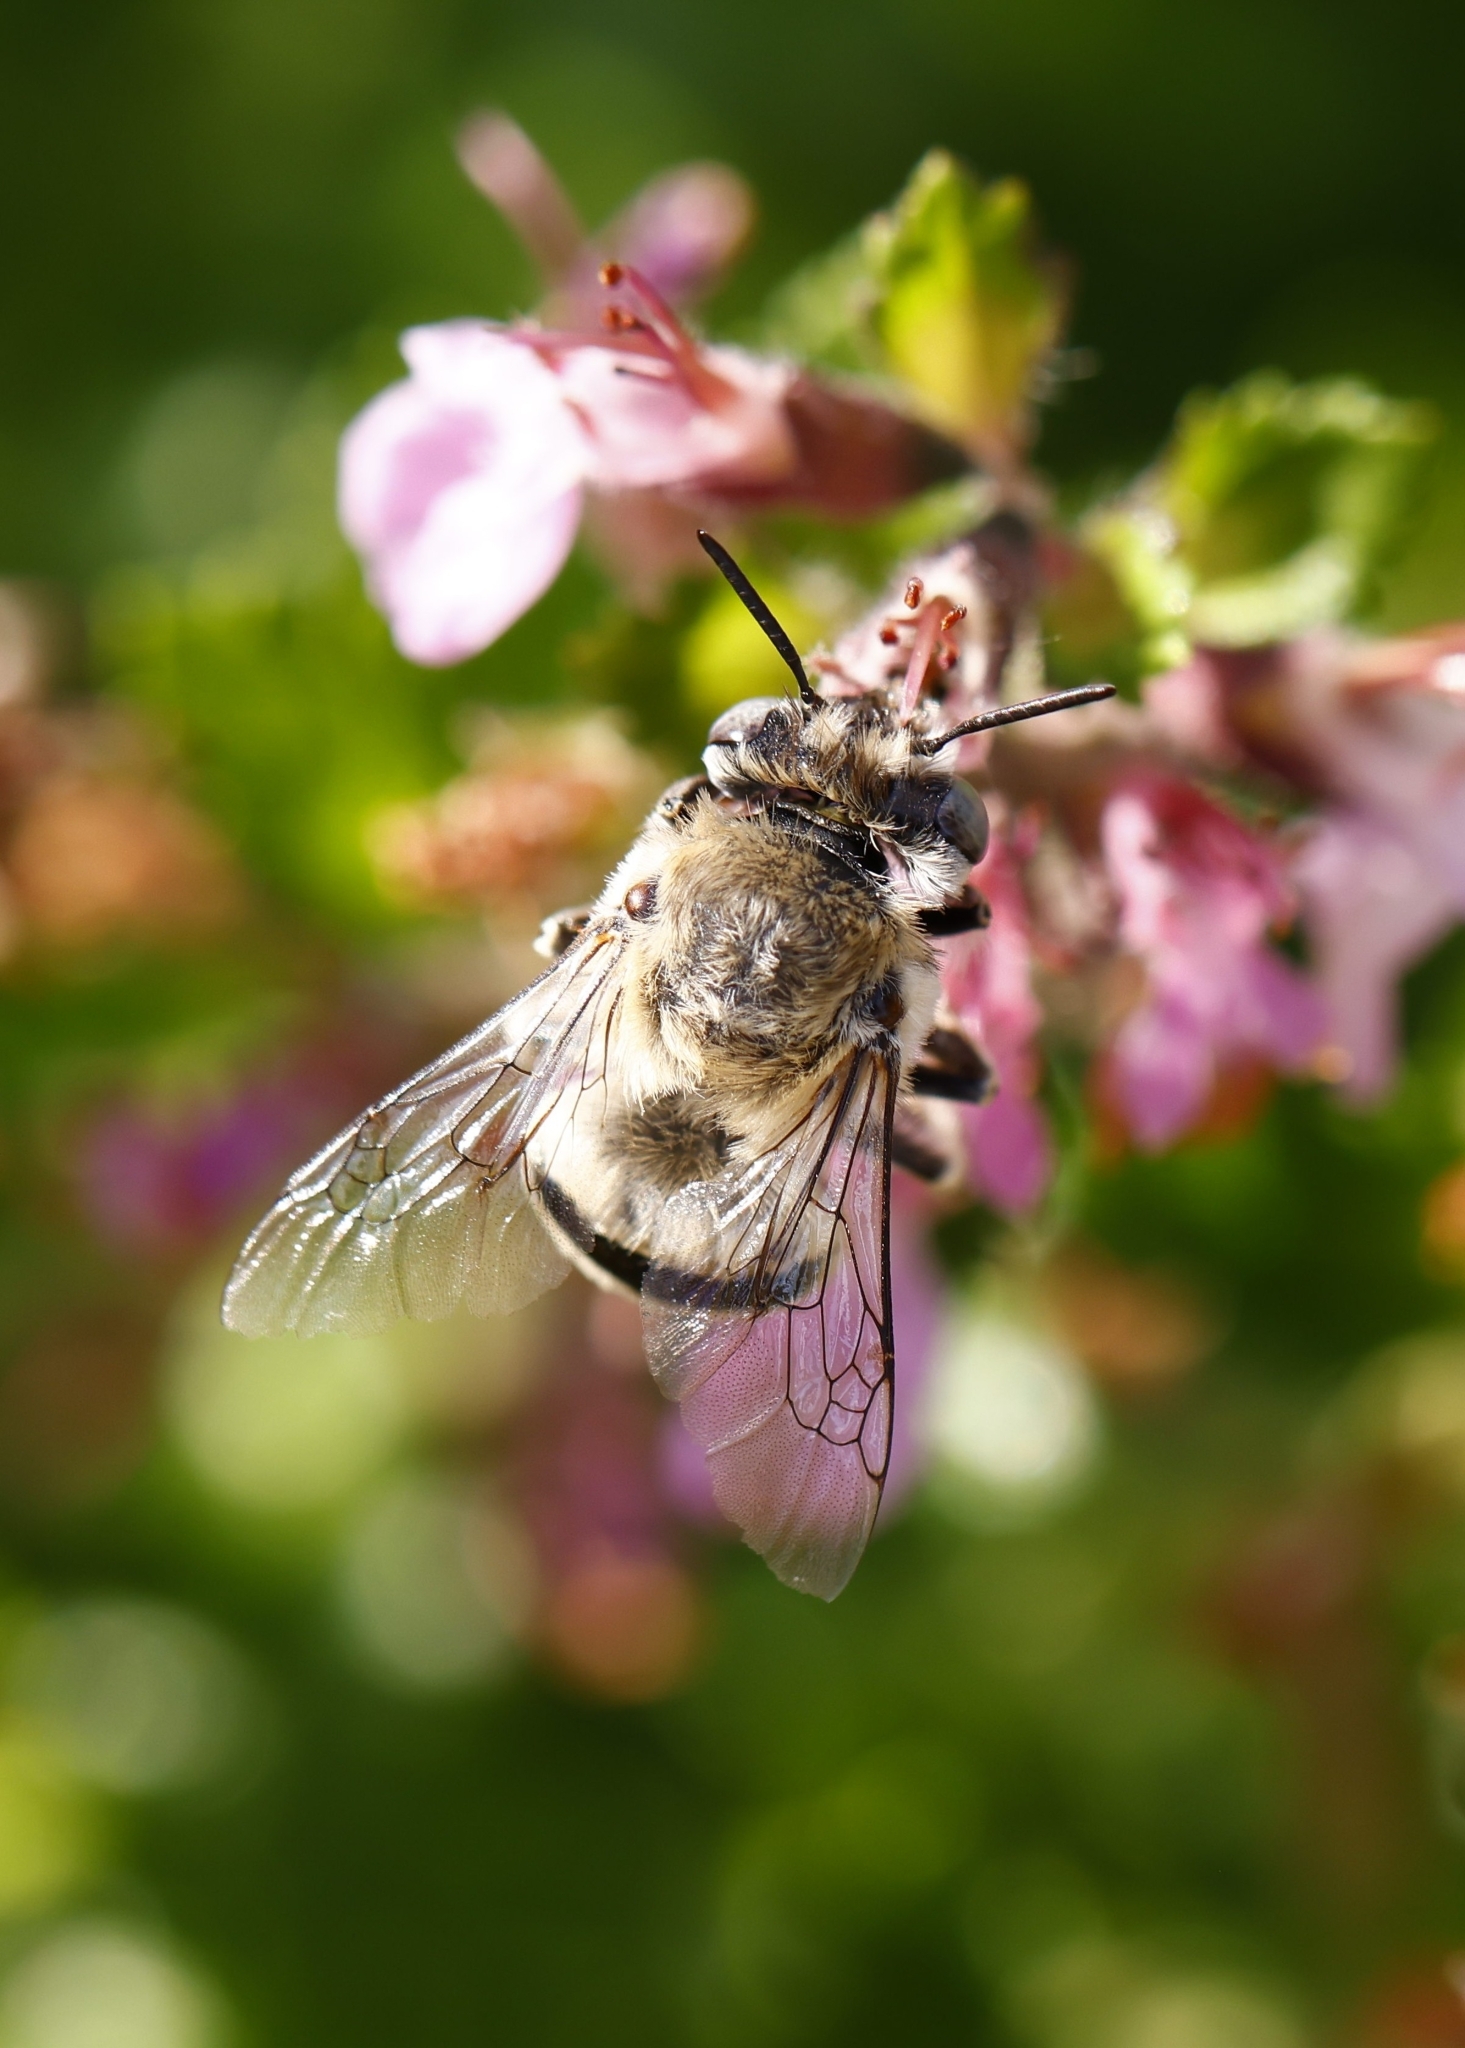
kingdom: Animalia
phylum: Arthropoda
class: Insecta
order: Hymenoptera
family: Apidae
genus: Anthophora
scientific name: Anthophora urbana
